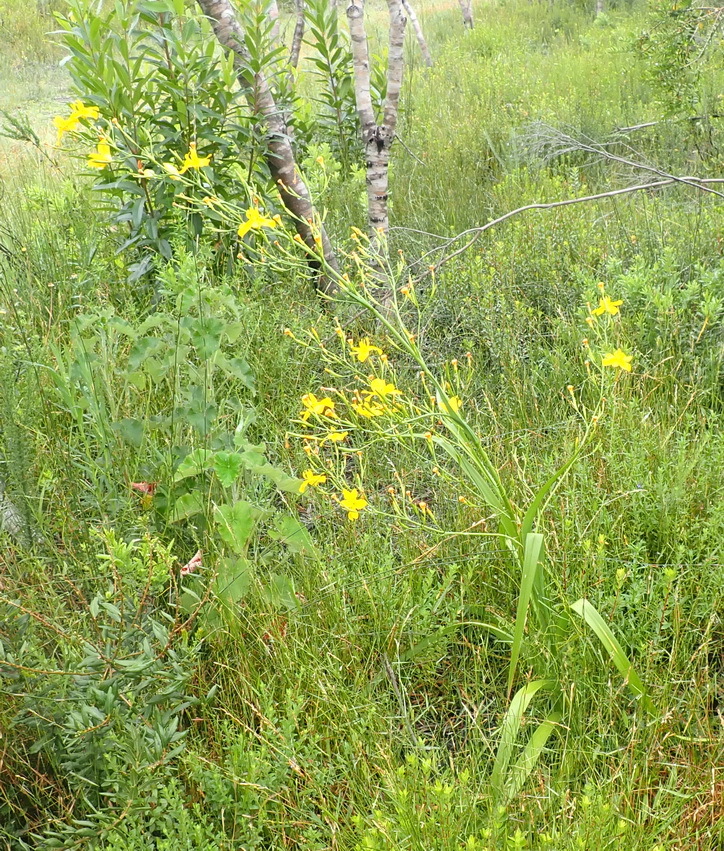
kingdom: Plantae
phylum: Tracheophyta
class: Liliopsida
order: Asparagales
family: Iridaceae
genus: Moraea
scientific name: Moraea ramosissima
